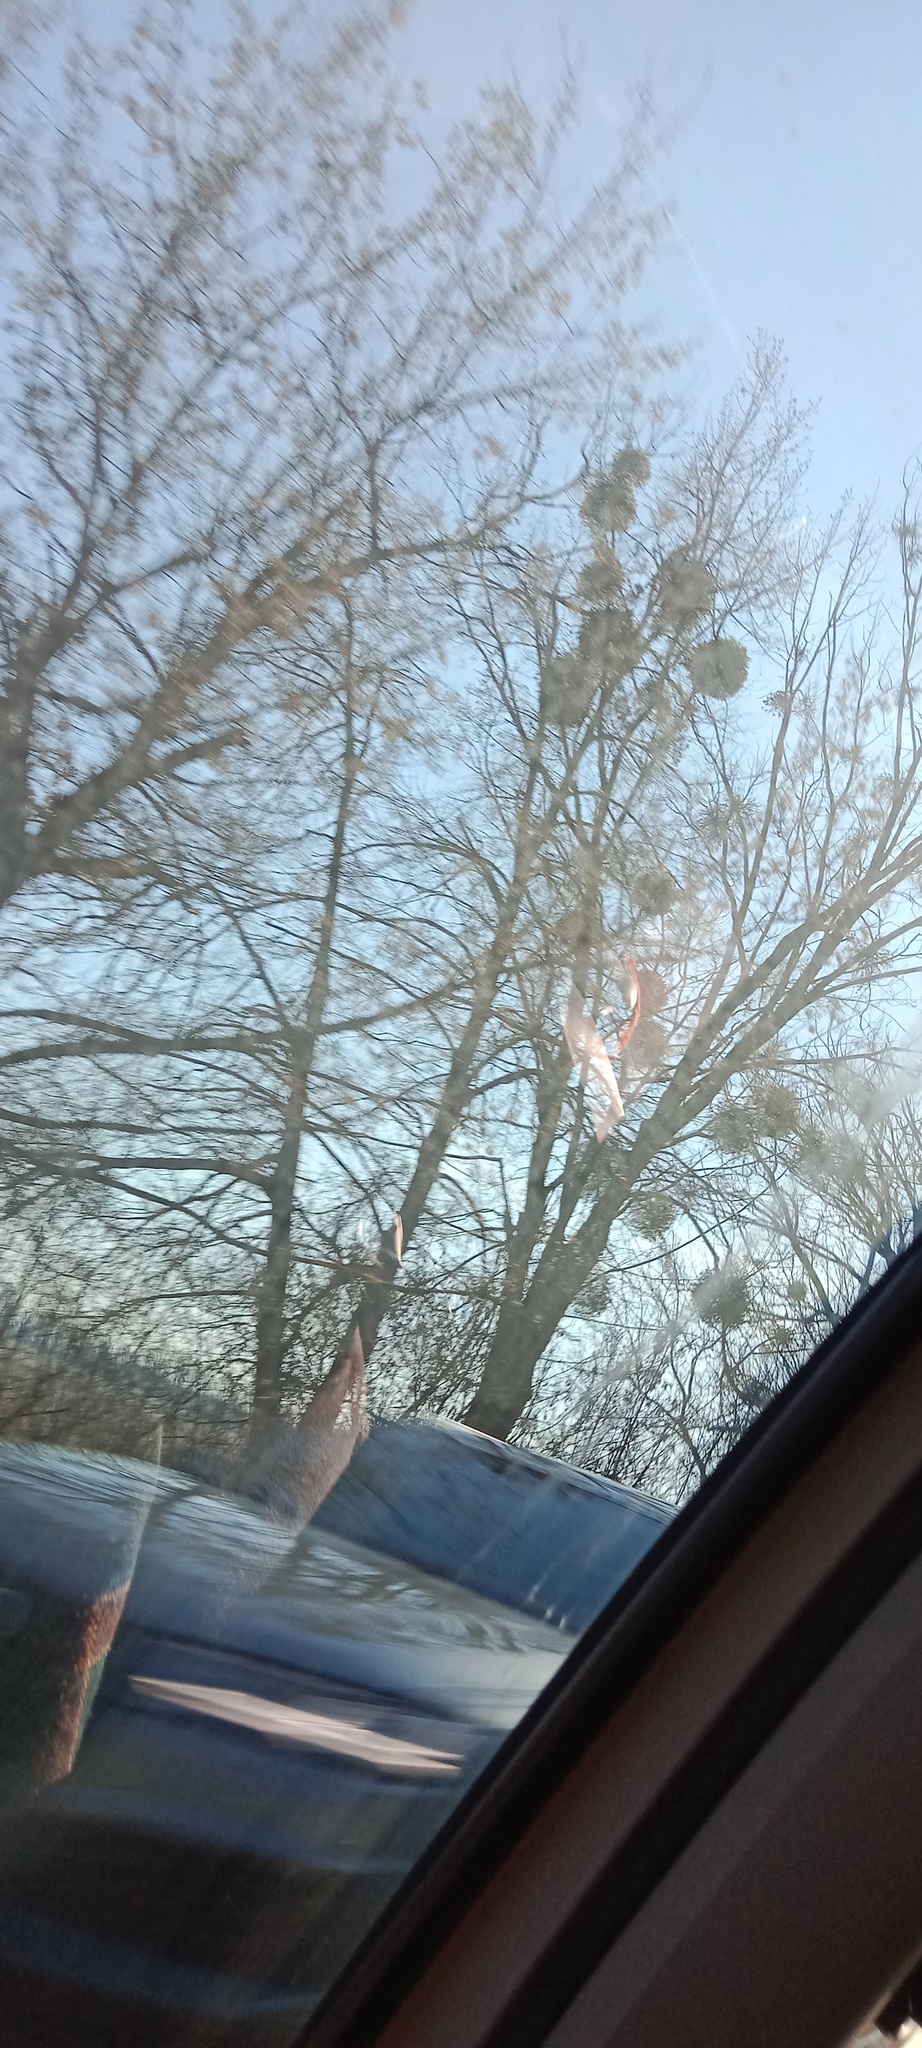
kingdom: Plantae
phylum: Tracheophyta
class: Magnoliopsida
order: Santalales
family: Viscaceae
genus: Viscum
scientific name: Viscum album
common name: Mistletoe
